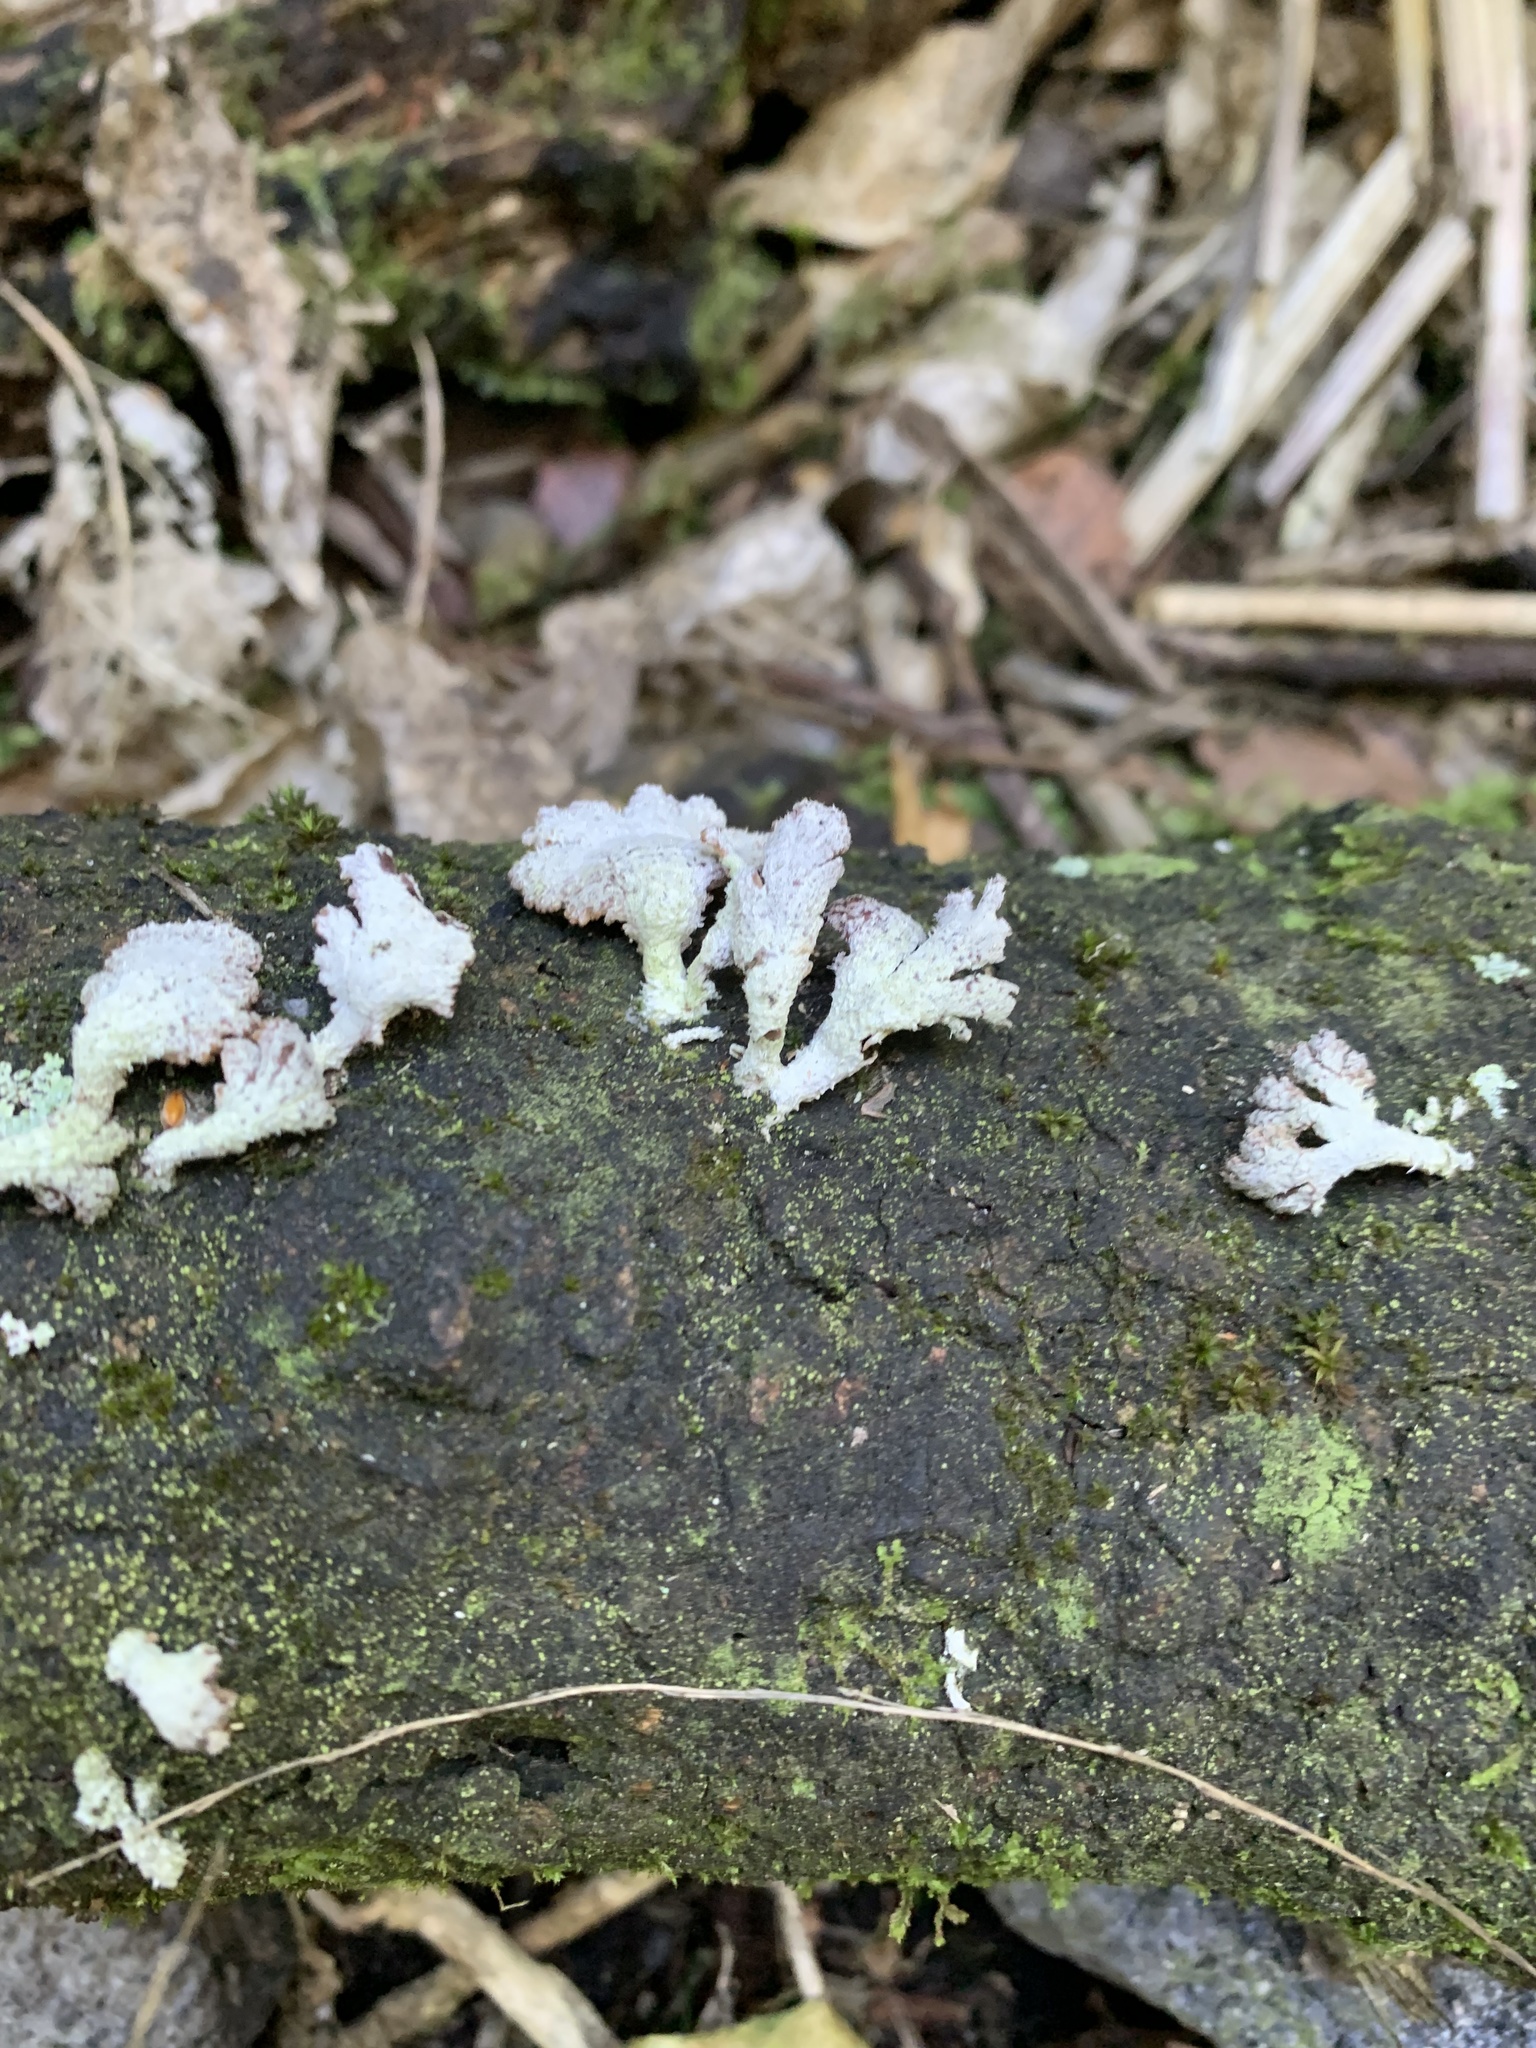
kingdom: Fungi
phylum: Basidiomycota
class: Agaricomycetes
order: Agaricales
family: Schizophyllaceae
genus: Schizophyllum
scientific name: Schizophyllum commune
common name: Common porecrust
